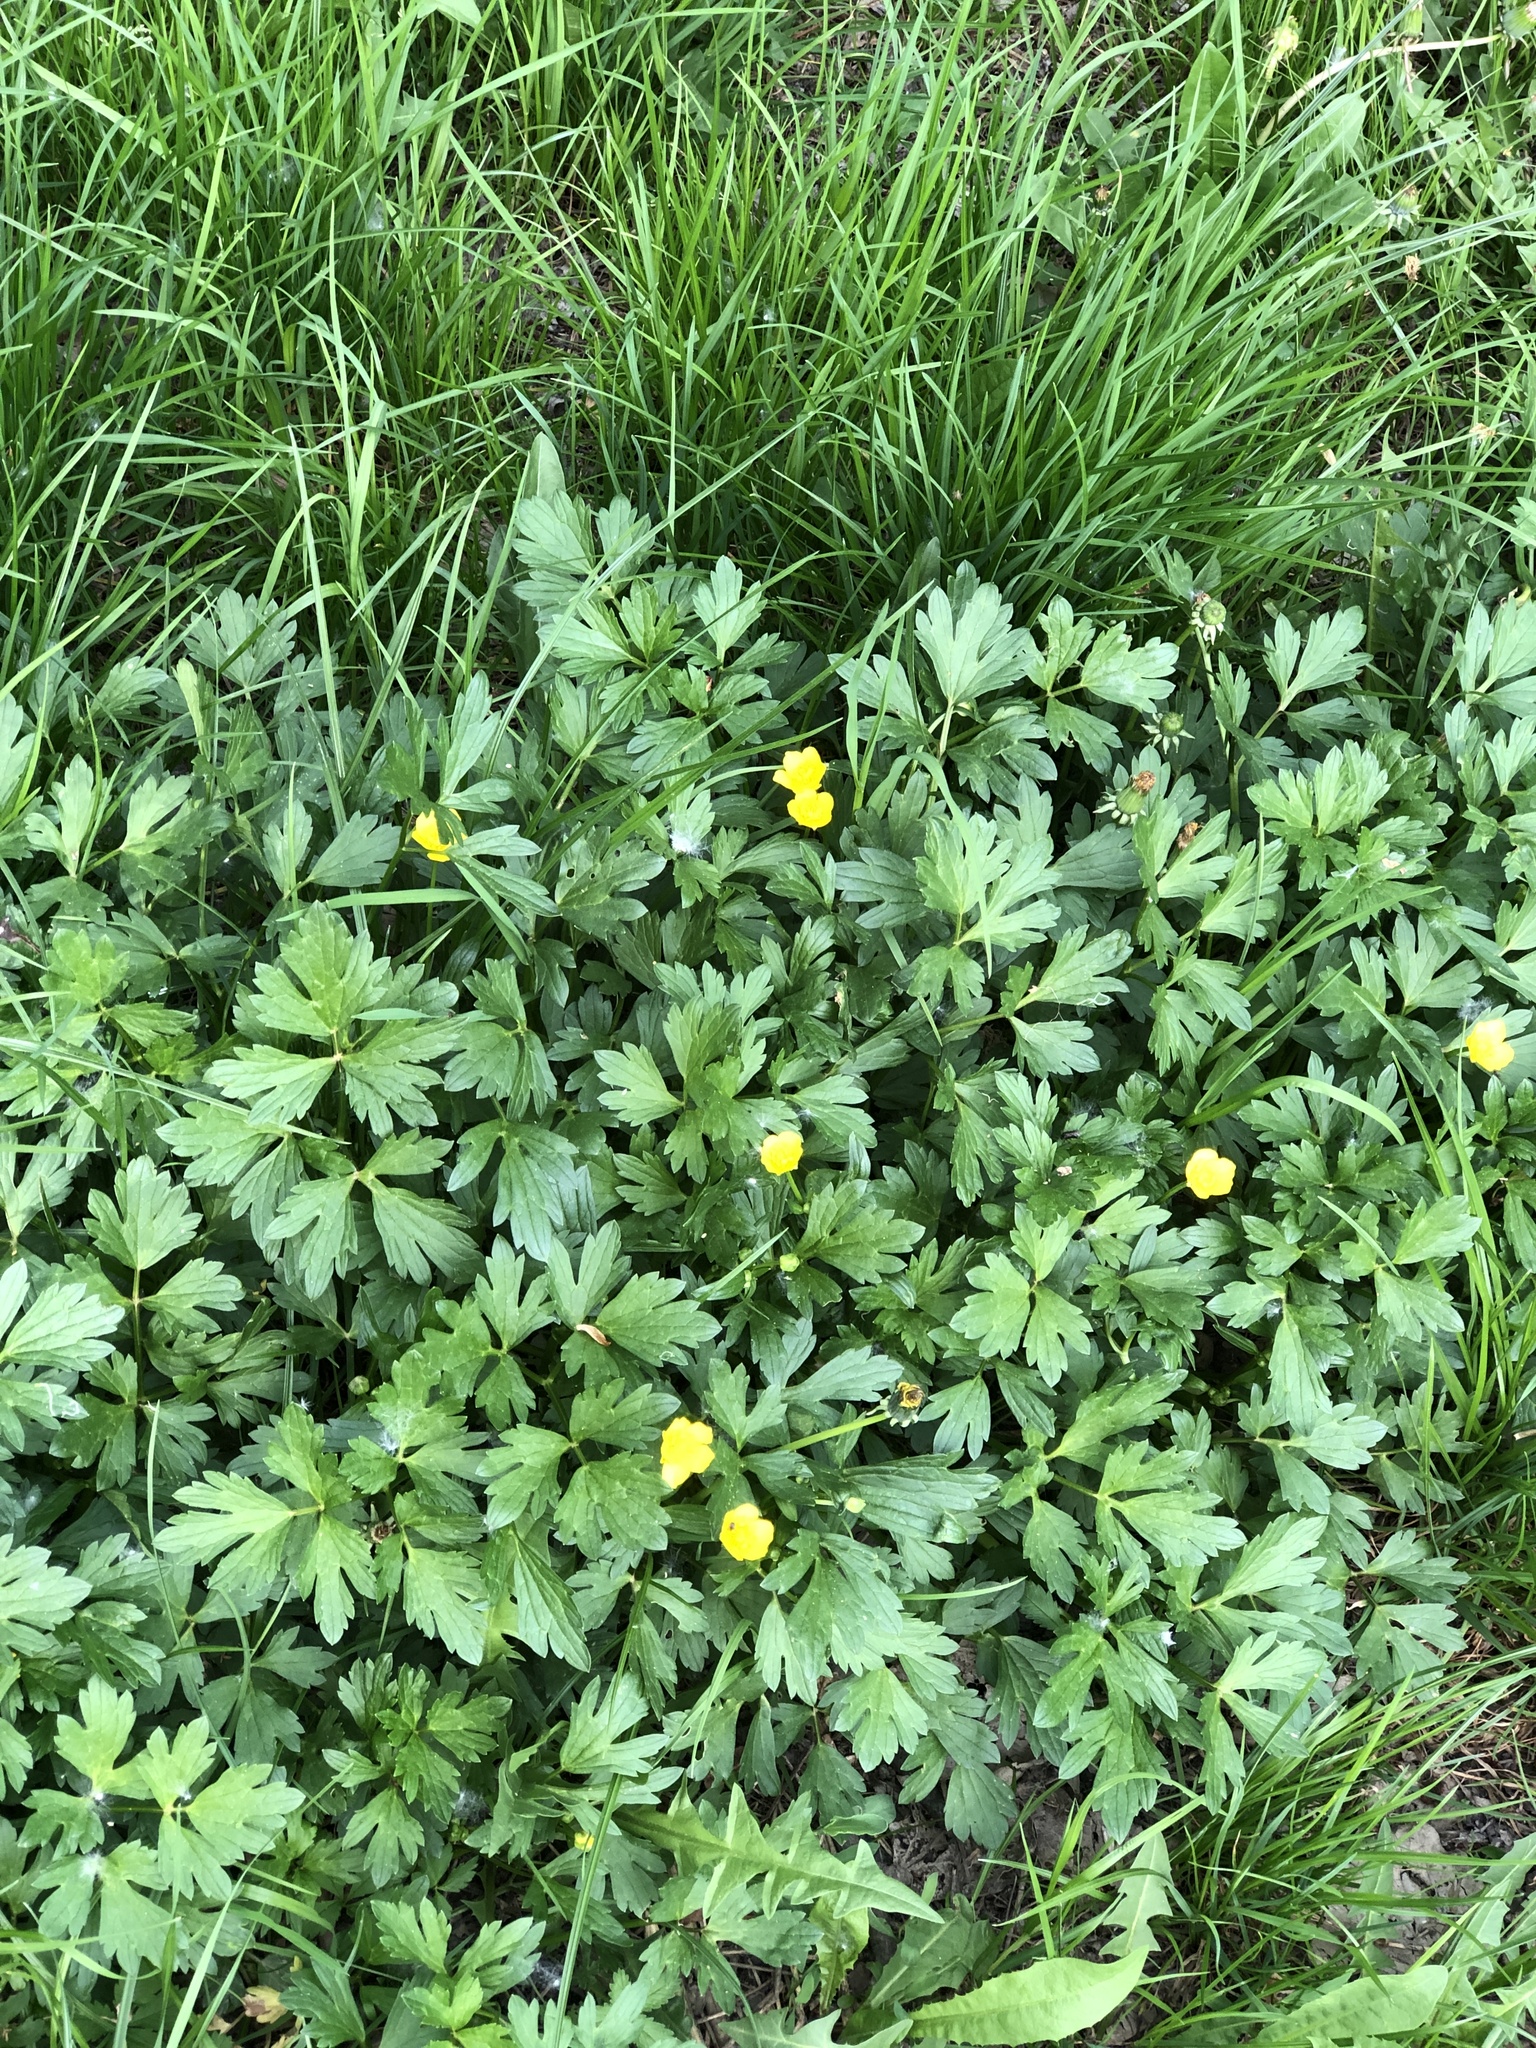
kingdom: Plantae
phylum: Tracheophyta
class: Magnoliopsida
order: Ranunculales
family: Ranunculaceae
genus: Ranunculus
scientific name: Ranunculus repens
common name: Creeping buttercup
